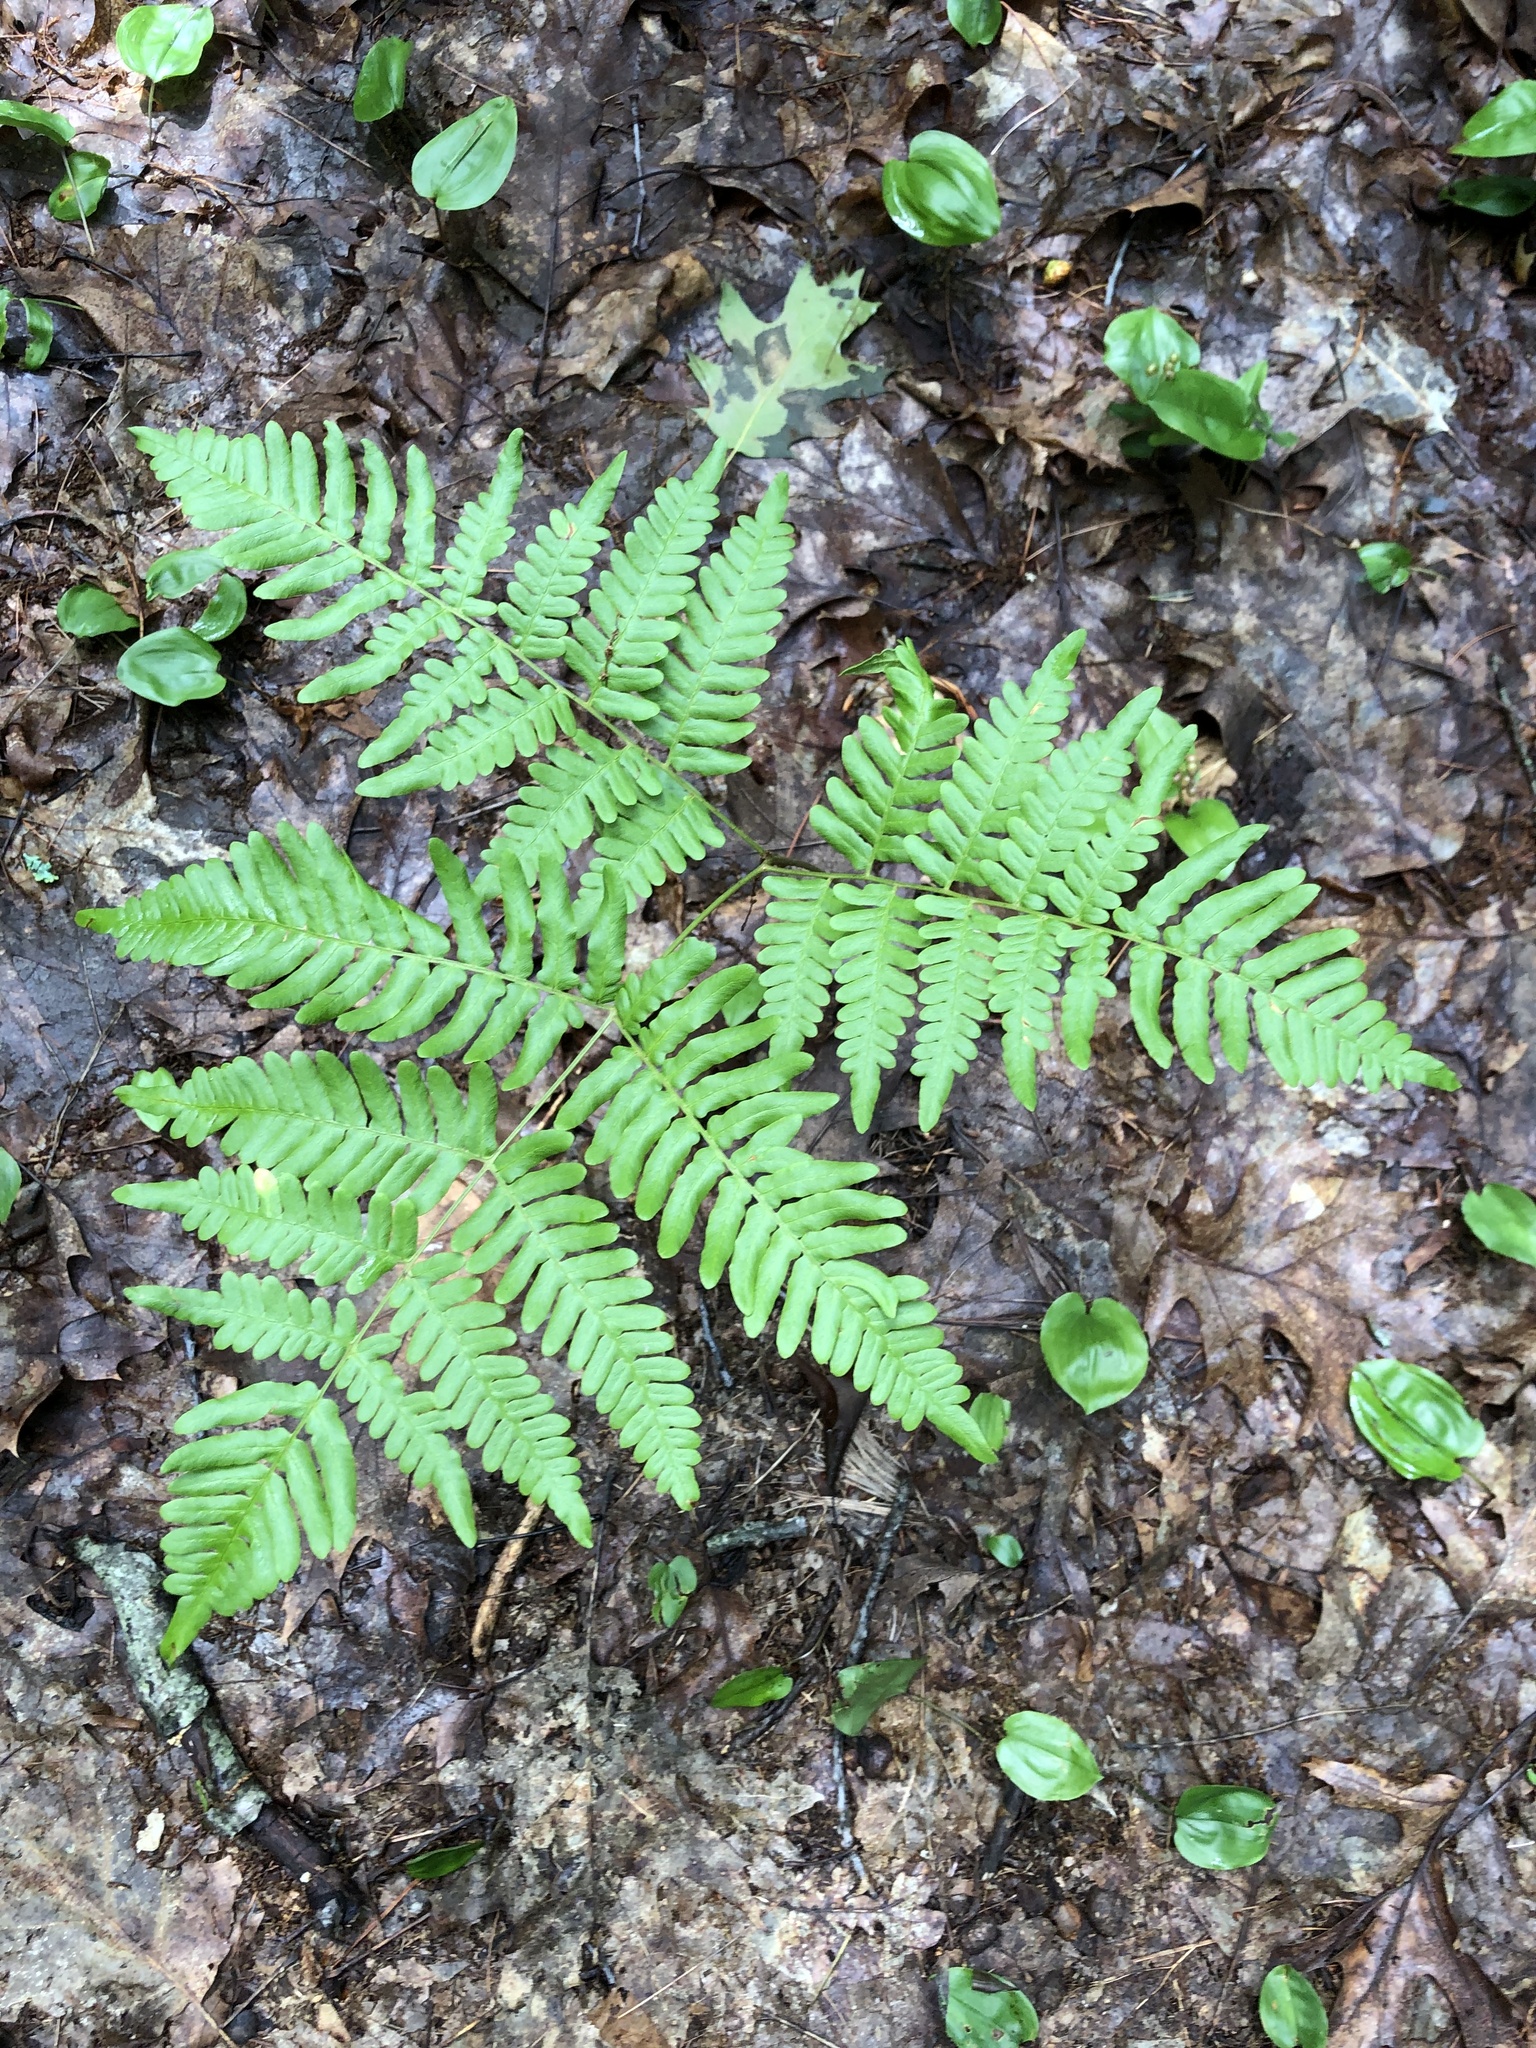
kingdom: Plantae
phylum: Tracheophyta
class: Polypodiopsida
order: Polypodiales
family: Dennstaedtiaceae
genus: Pteridium
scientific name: Pteridium aquilinum
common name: Bracken
